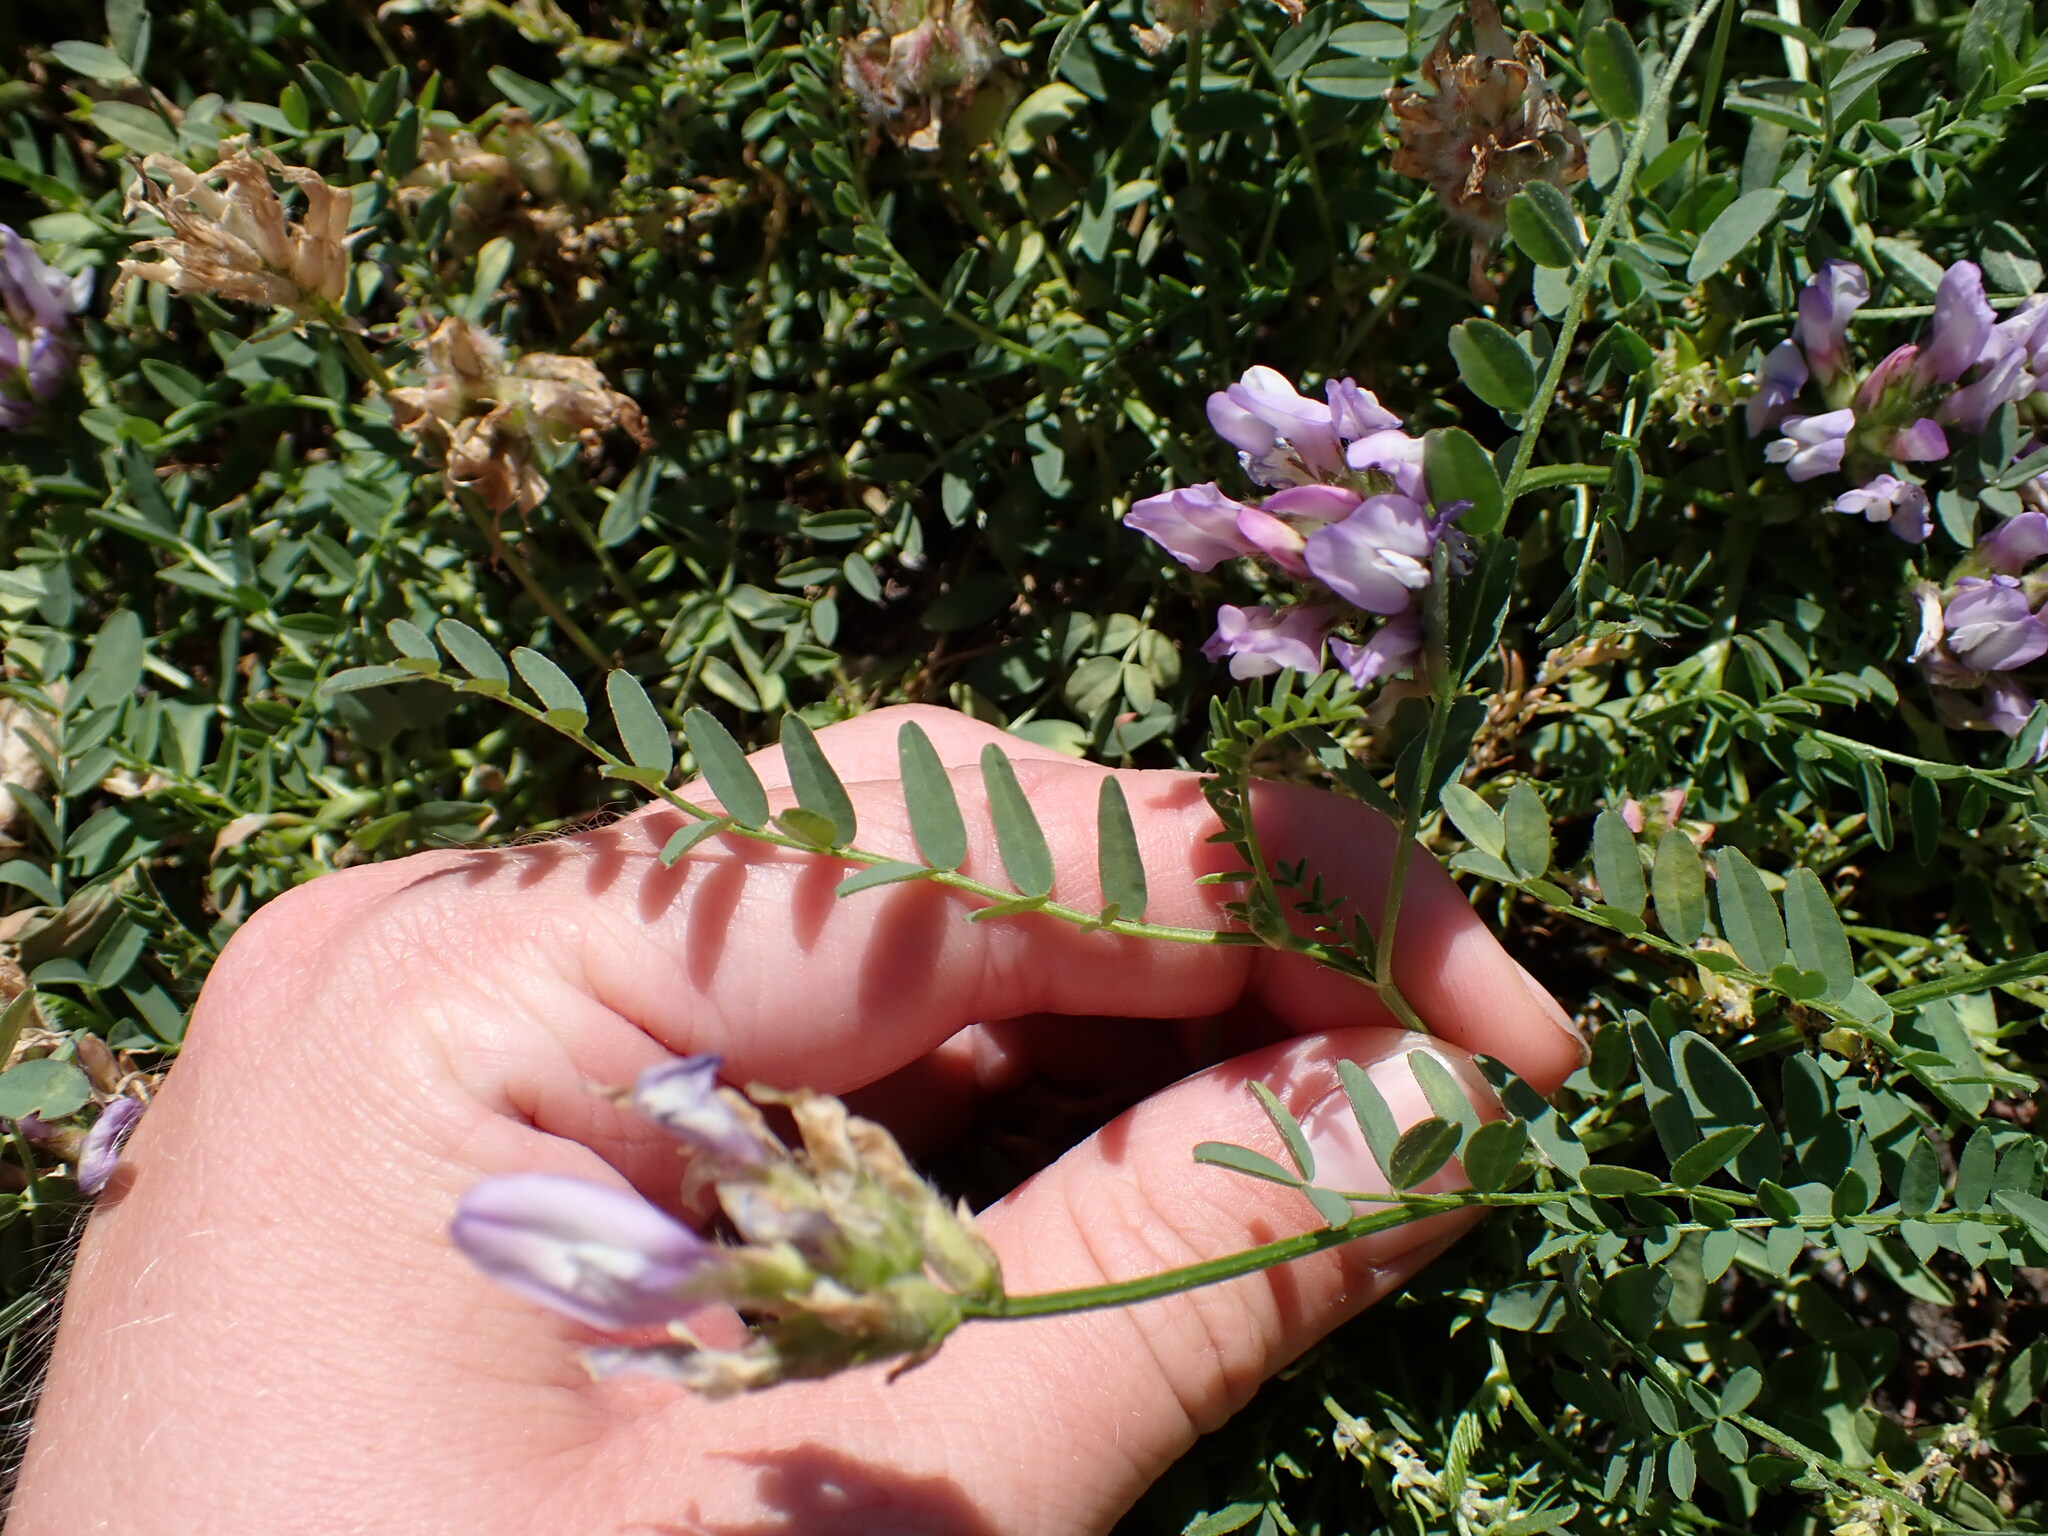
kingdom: Plantae
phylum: Tracheophyta
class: Magnoliopsida
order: Fabales
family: Fabaceae
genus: Astragalus
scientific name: Astragalus agrestis
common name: Field milk-vetch
